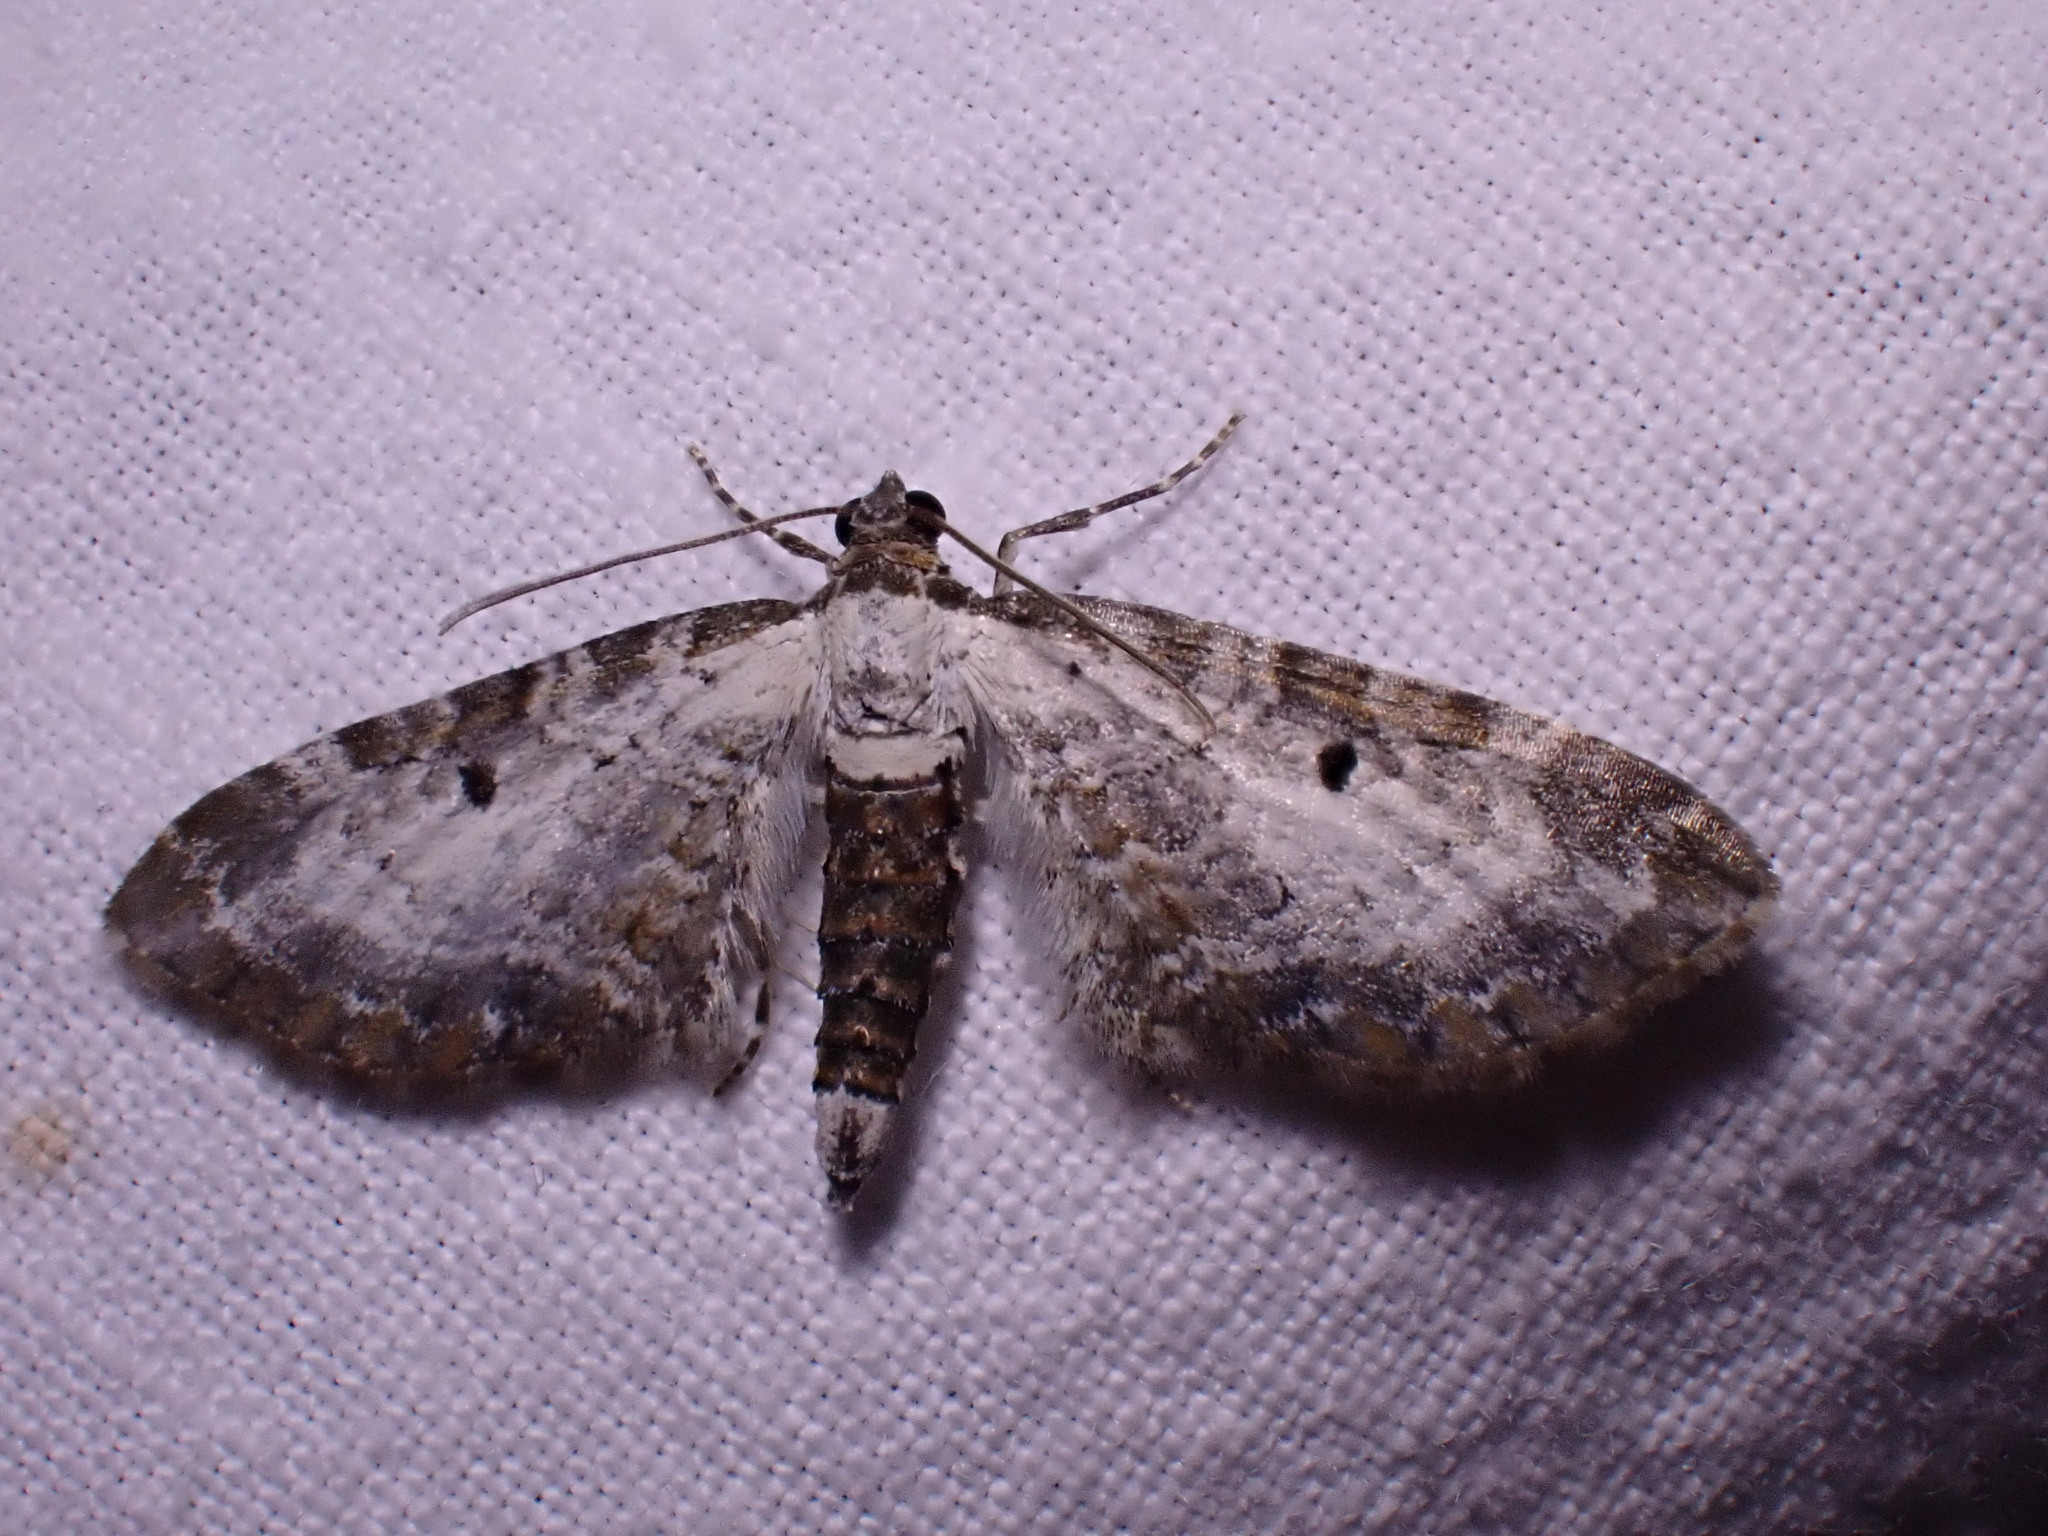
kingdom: Animalia
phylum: Arthropoda
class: Insecta
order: Lepidoptera
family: Geometridae
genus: Eupithecia
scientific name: Eupithecia succenturiata
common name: Bordered pug
